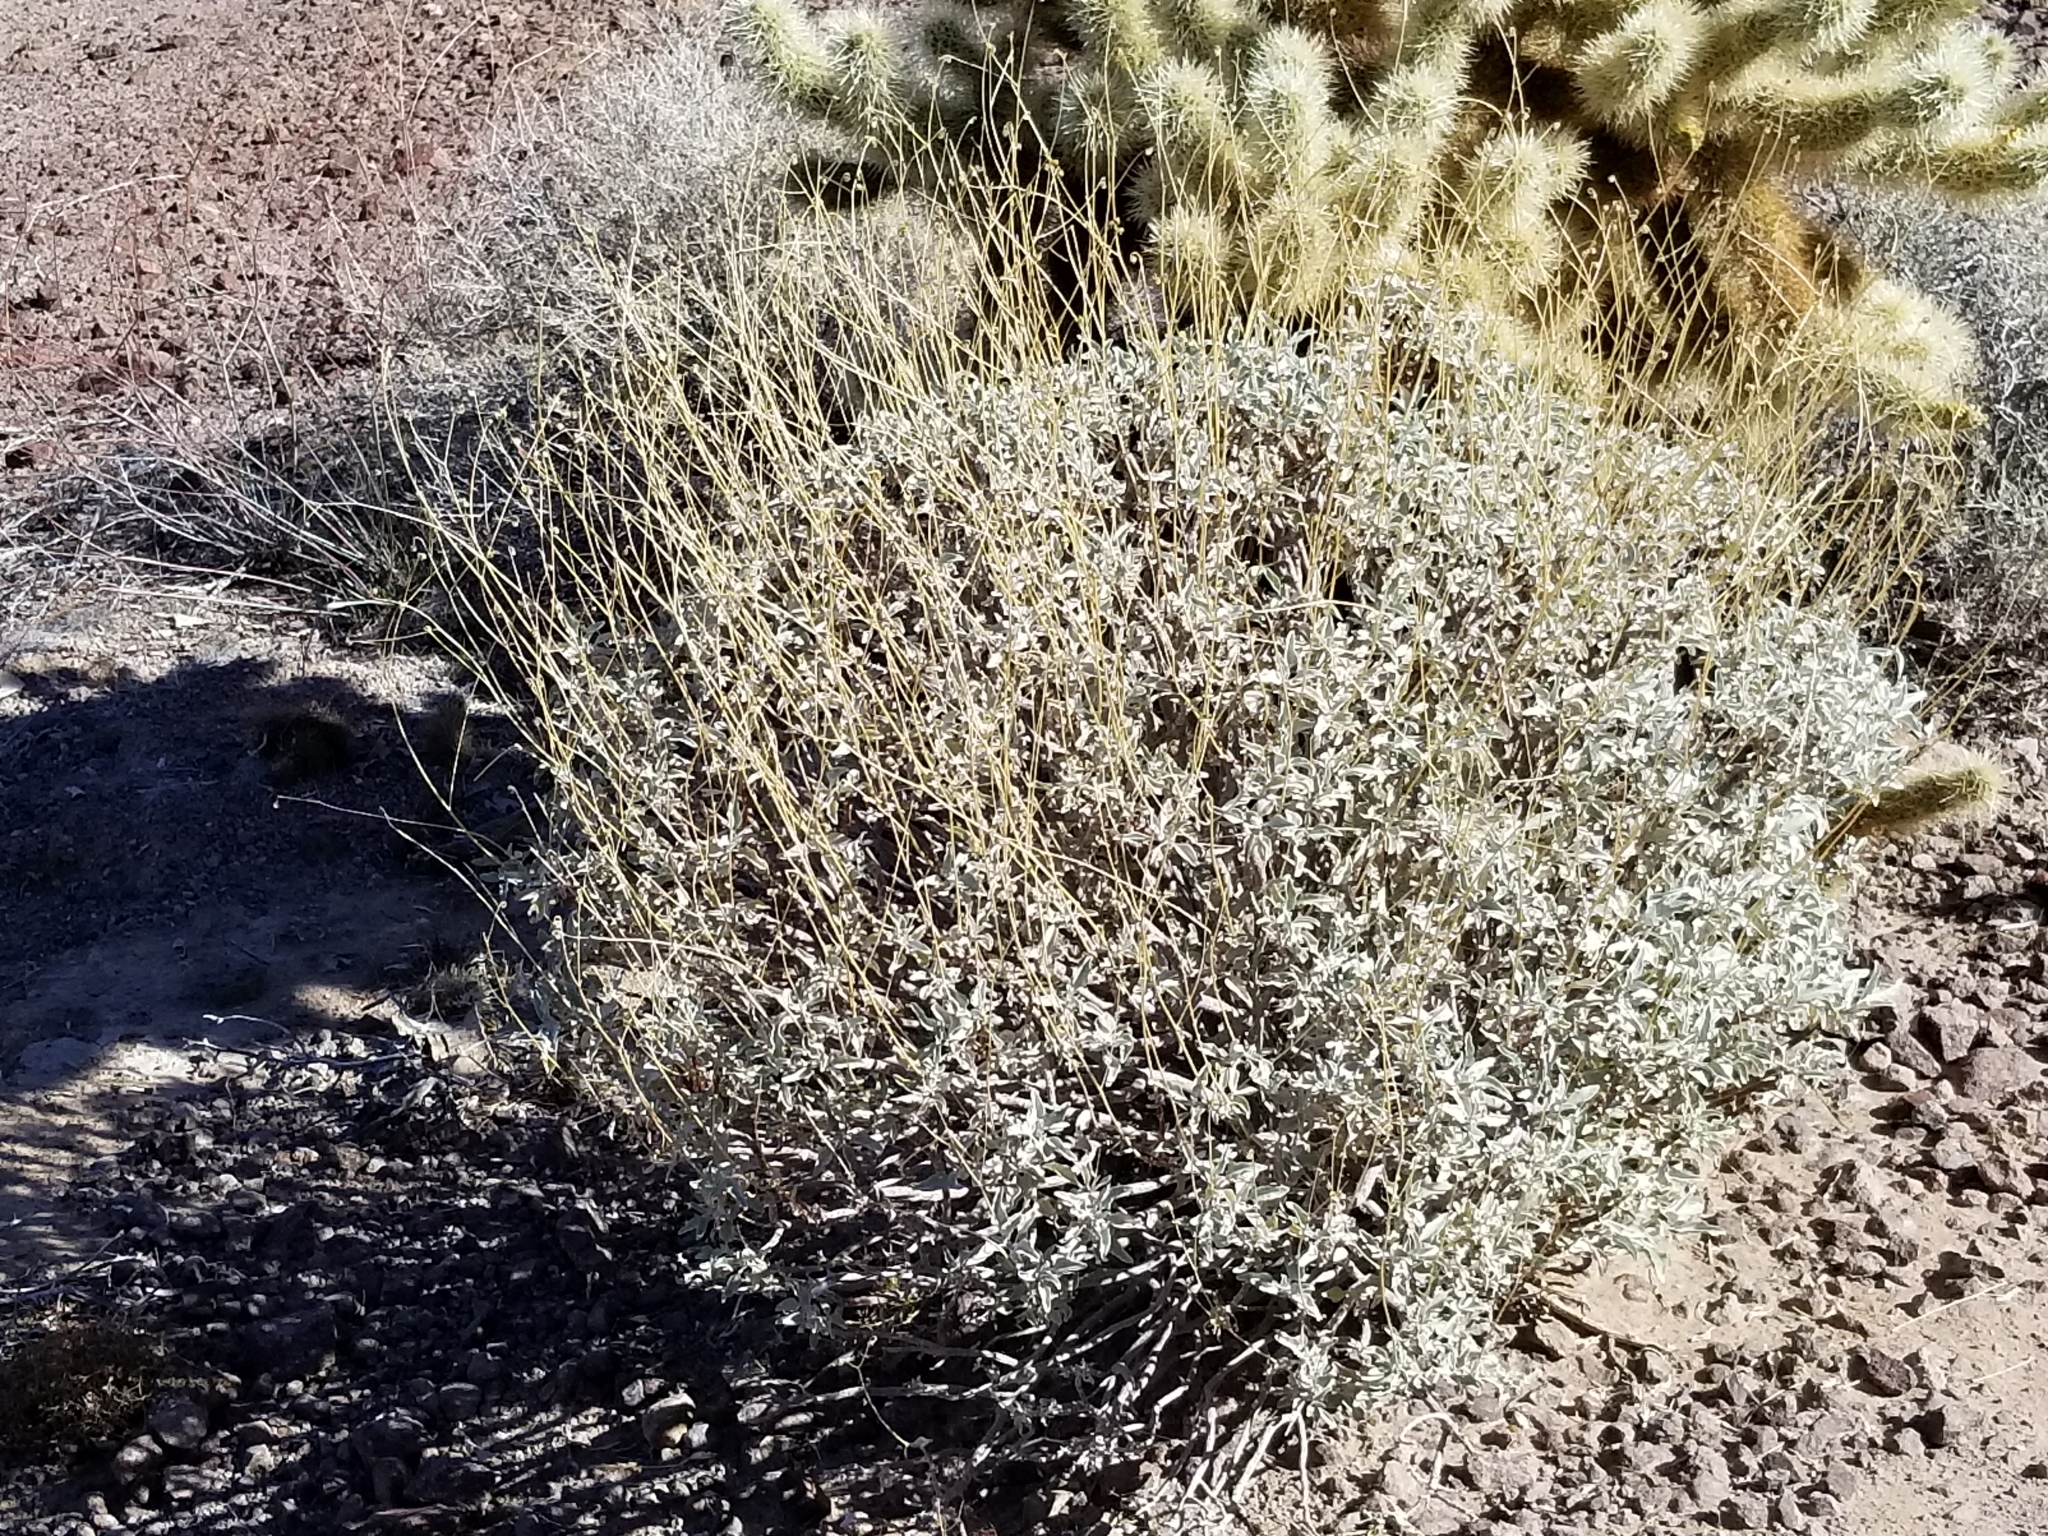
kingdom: Plantae
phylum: Tracheophyta
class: Magnoliopsida
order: Asterales
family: Asteraceae
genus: Encelia
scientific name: Encelia farinosa
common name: Brittlebush
